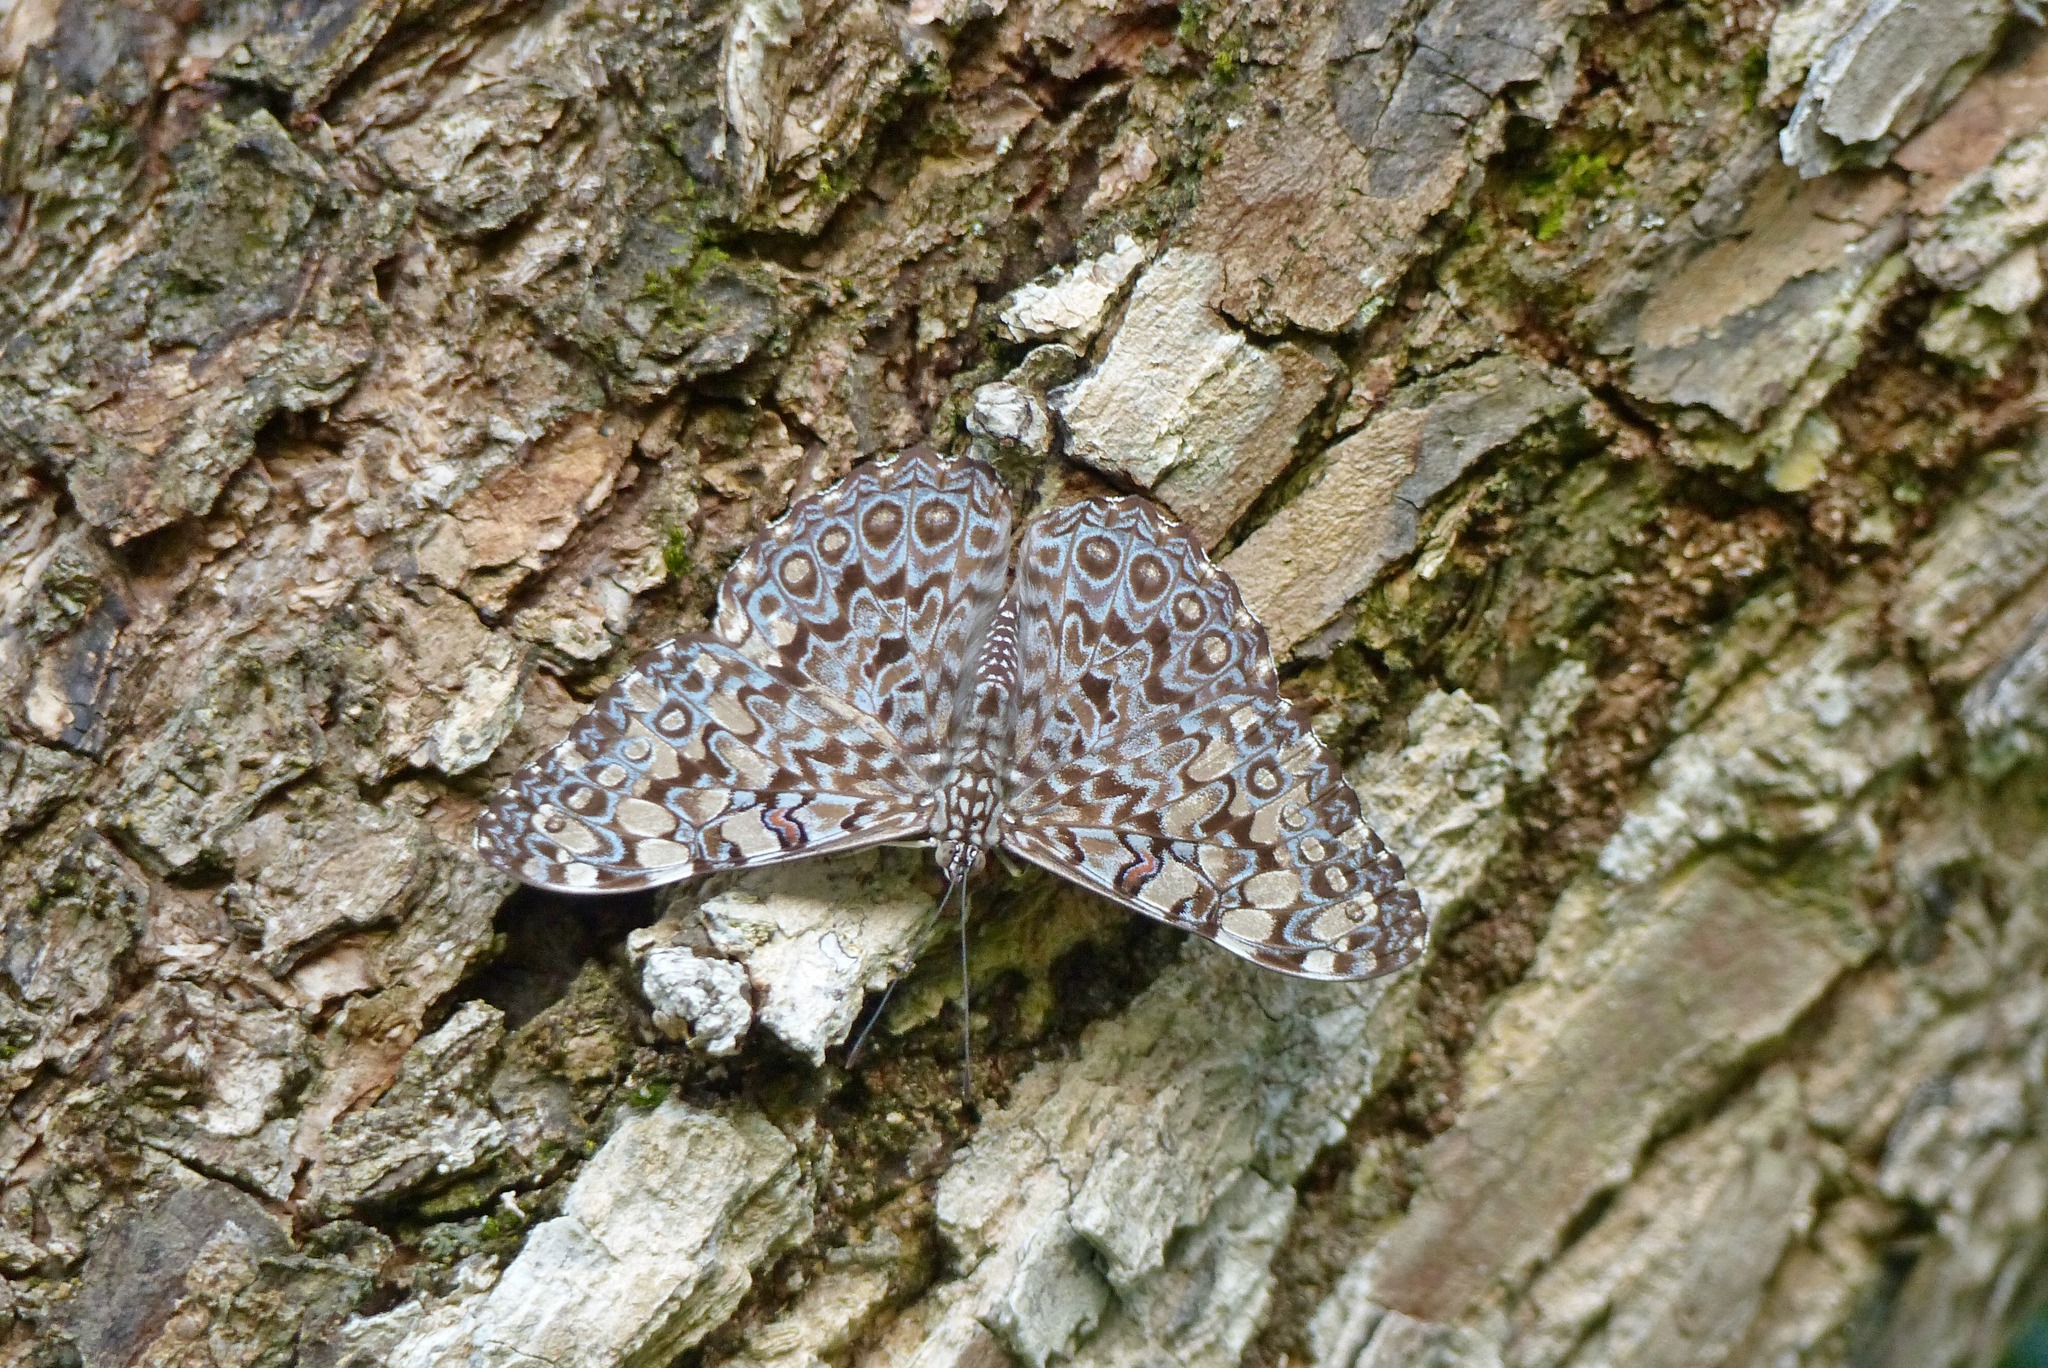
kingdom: Animalia
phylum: Arthropoda
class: Insecta
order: Lepidoptera
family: Nymphalidae
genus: Hamadryas
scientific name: Hamadryas feronia
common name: Variable cracker
